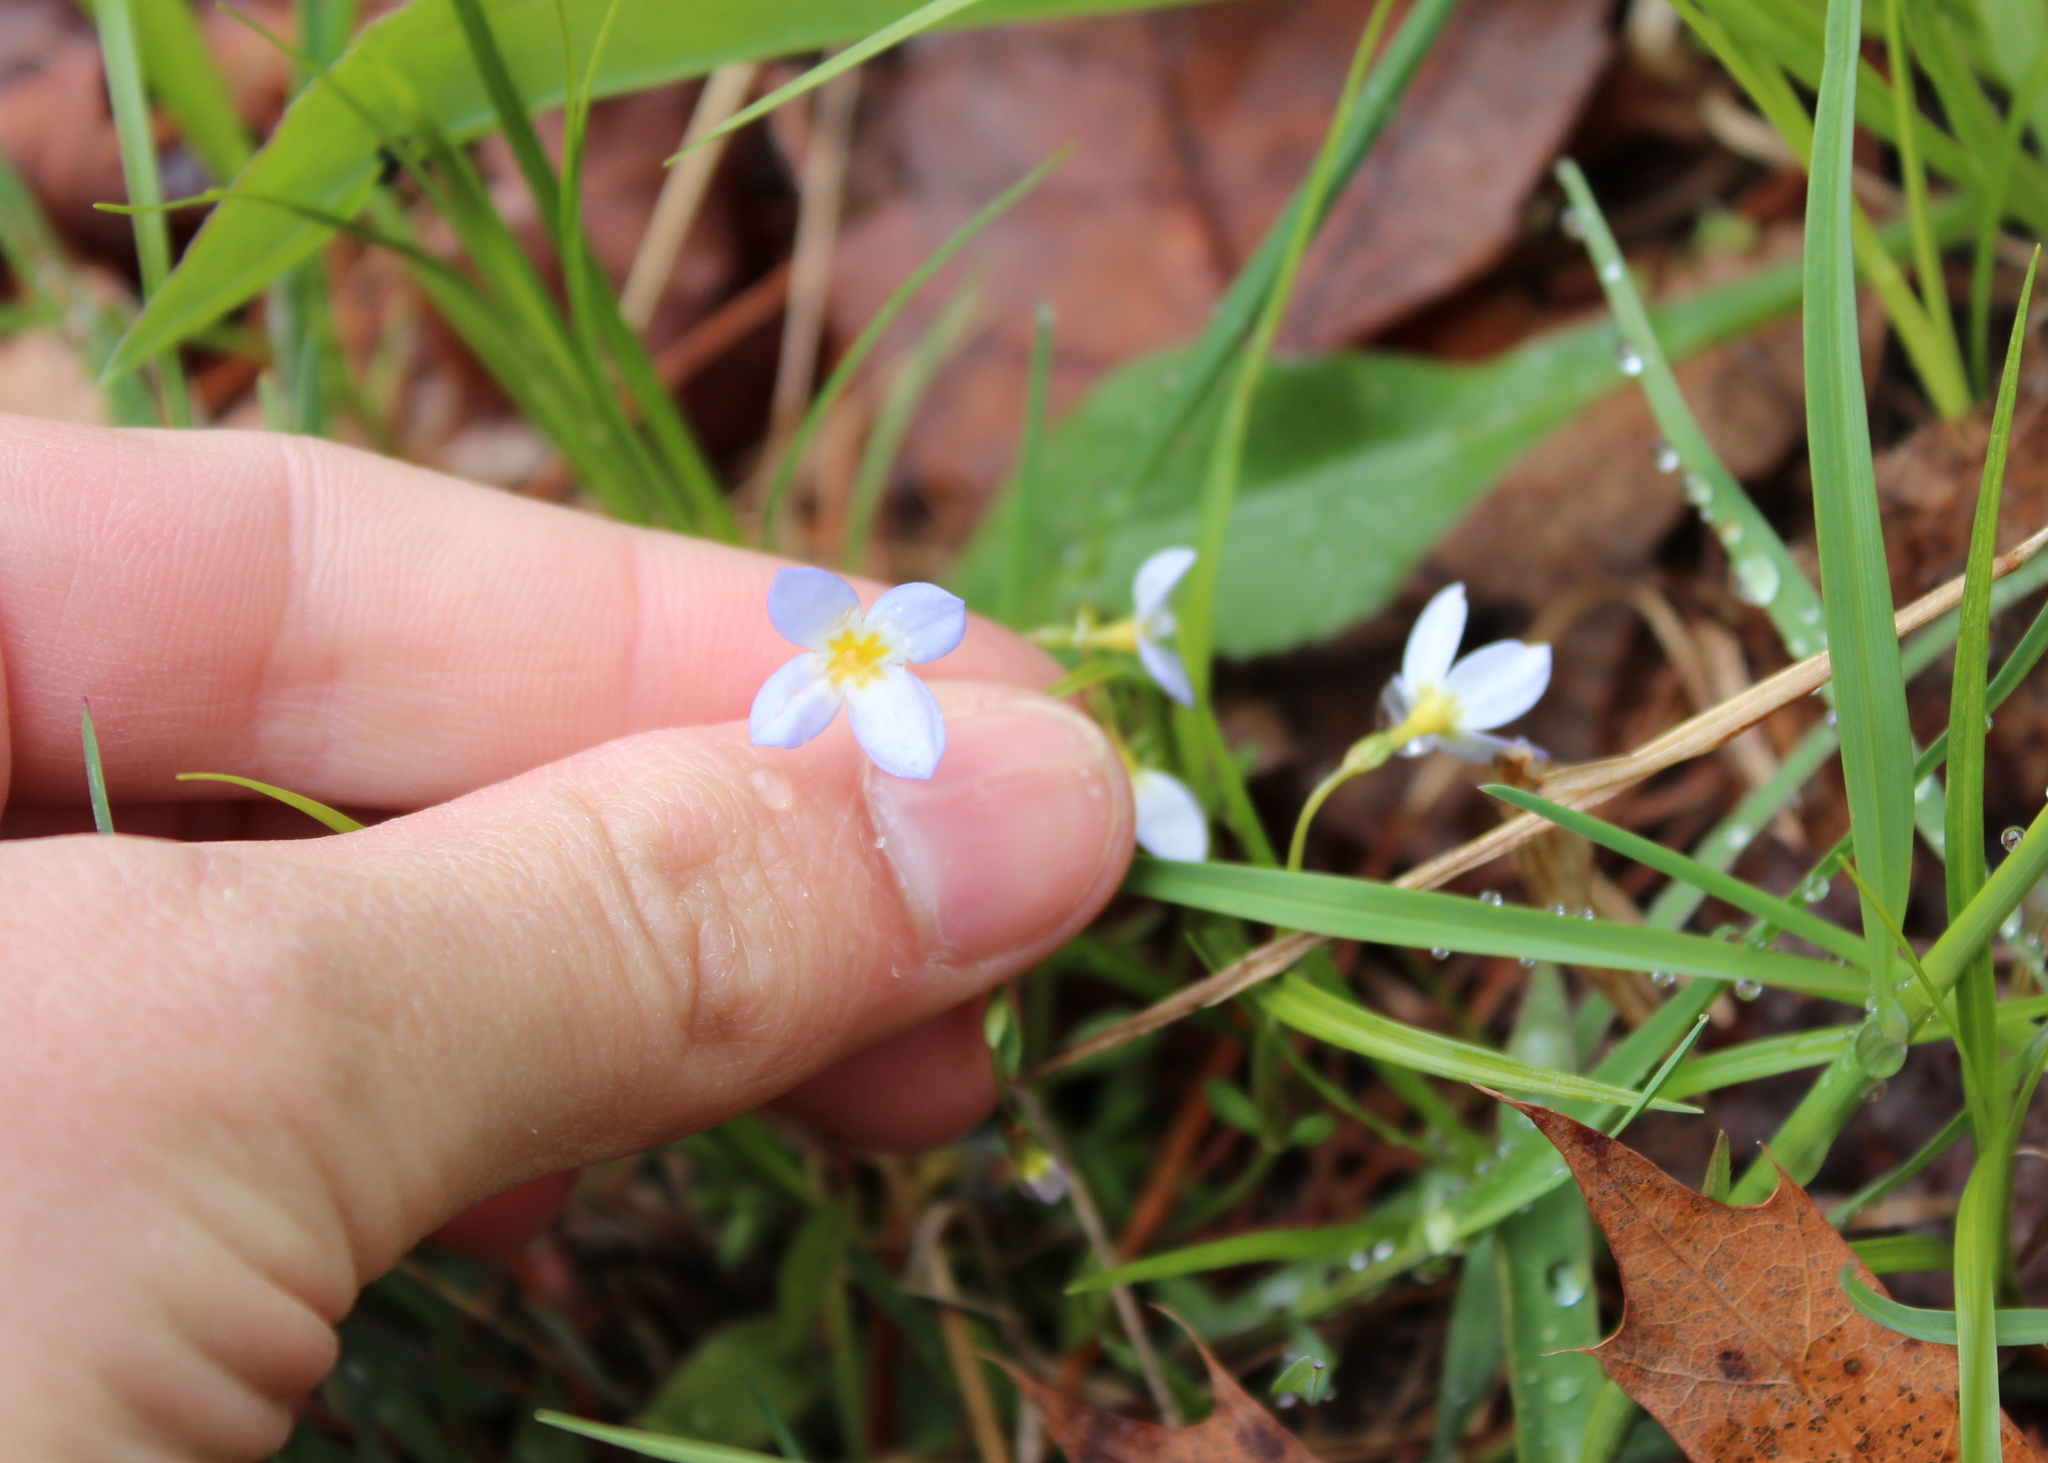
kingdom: Plantae
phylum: Tracheophyta
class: Magnoliopsida
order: Gentianales
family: Rubiaceae
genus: Houstonia
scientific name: Houstonia caerulea
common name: Bluets
